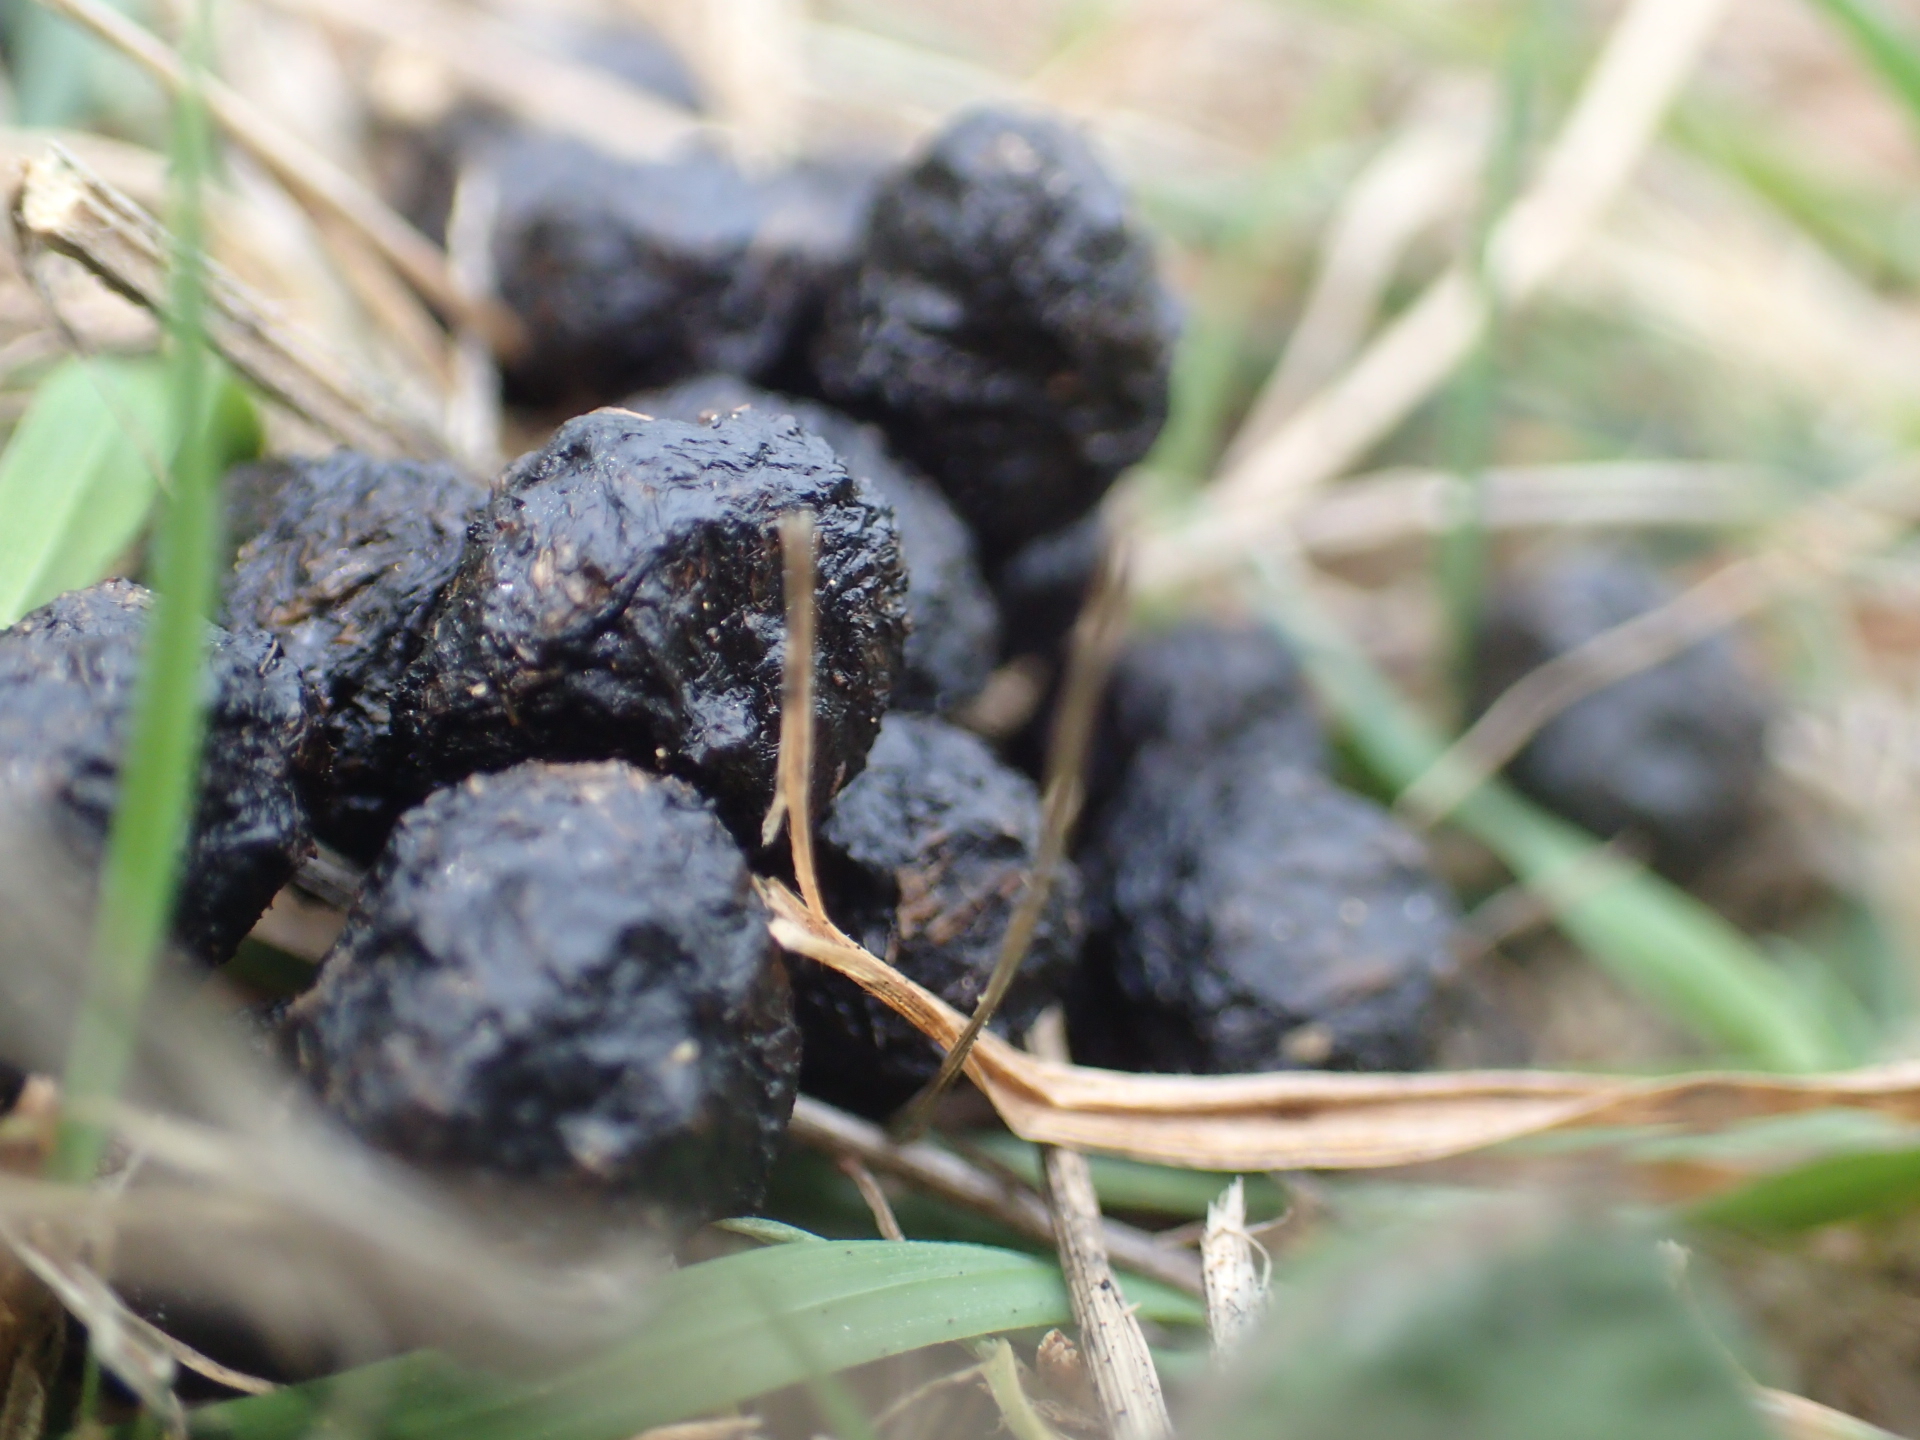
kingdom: Animalia
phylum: Chordata
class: Mammalia
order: Lagomorpha
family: Leporidae
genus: Oryctolagus
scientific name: Oryctolagus cuniculus
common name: European rabbit
